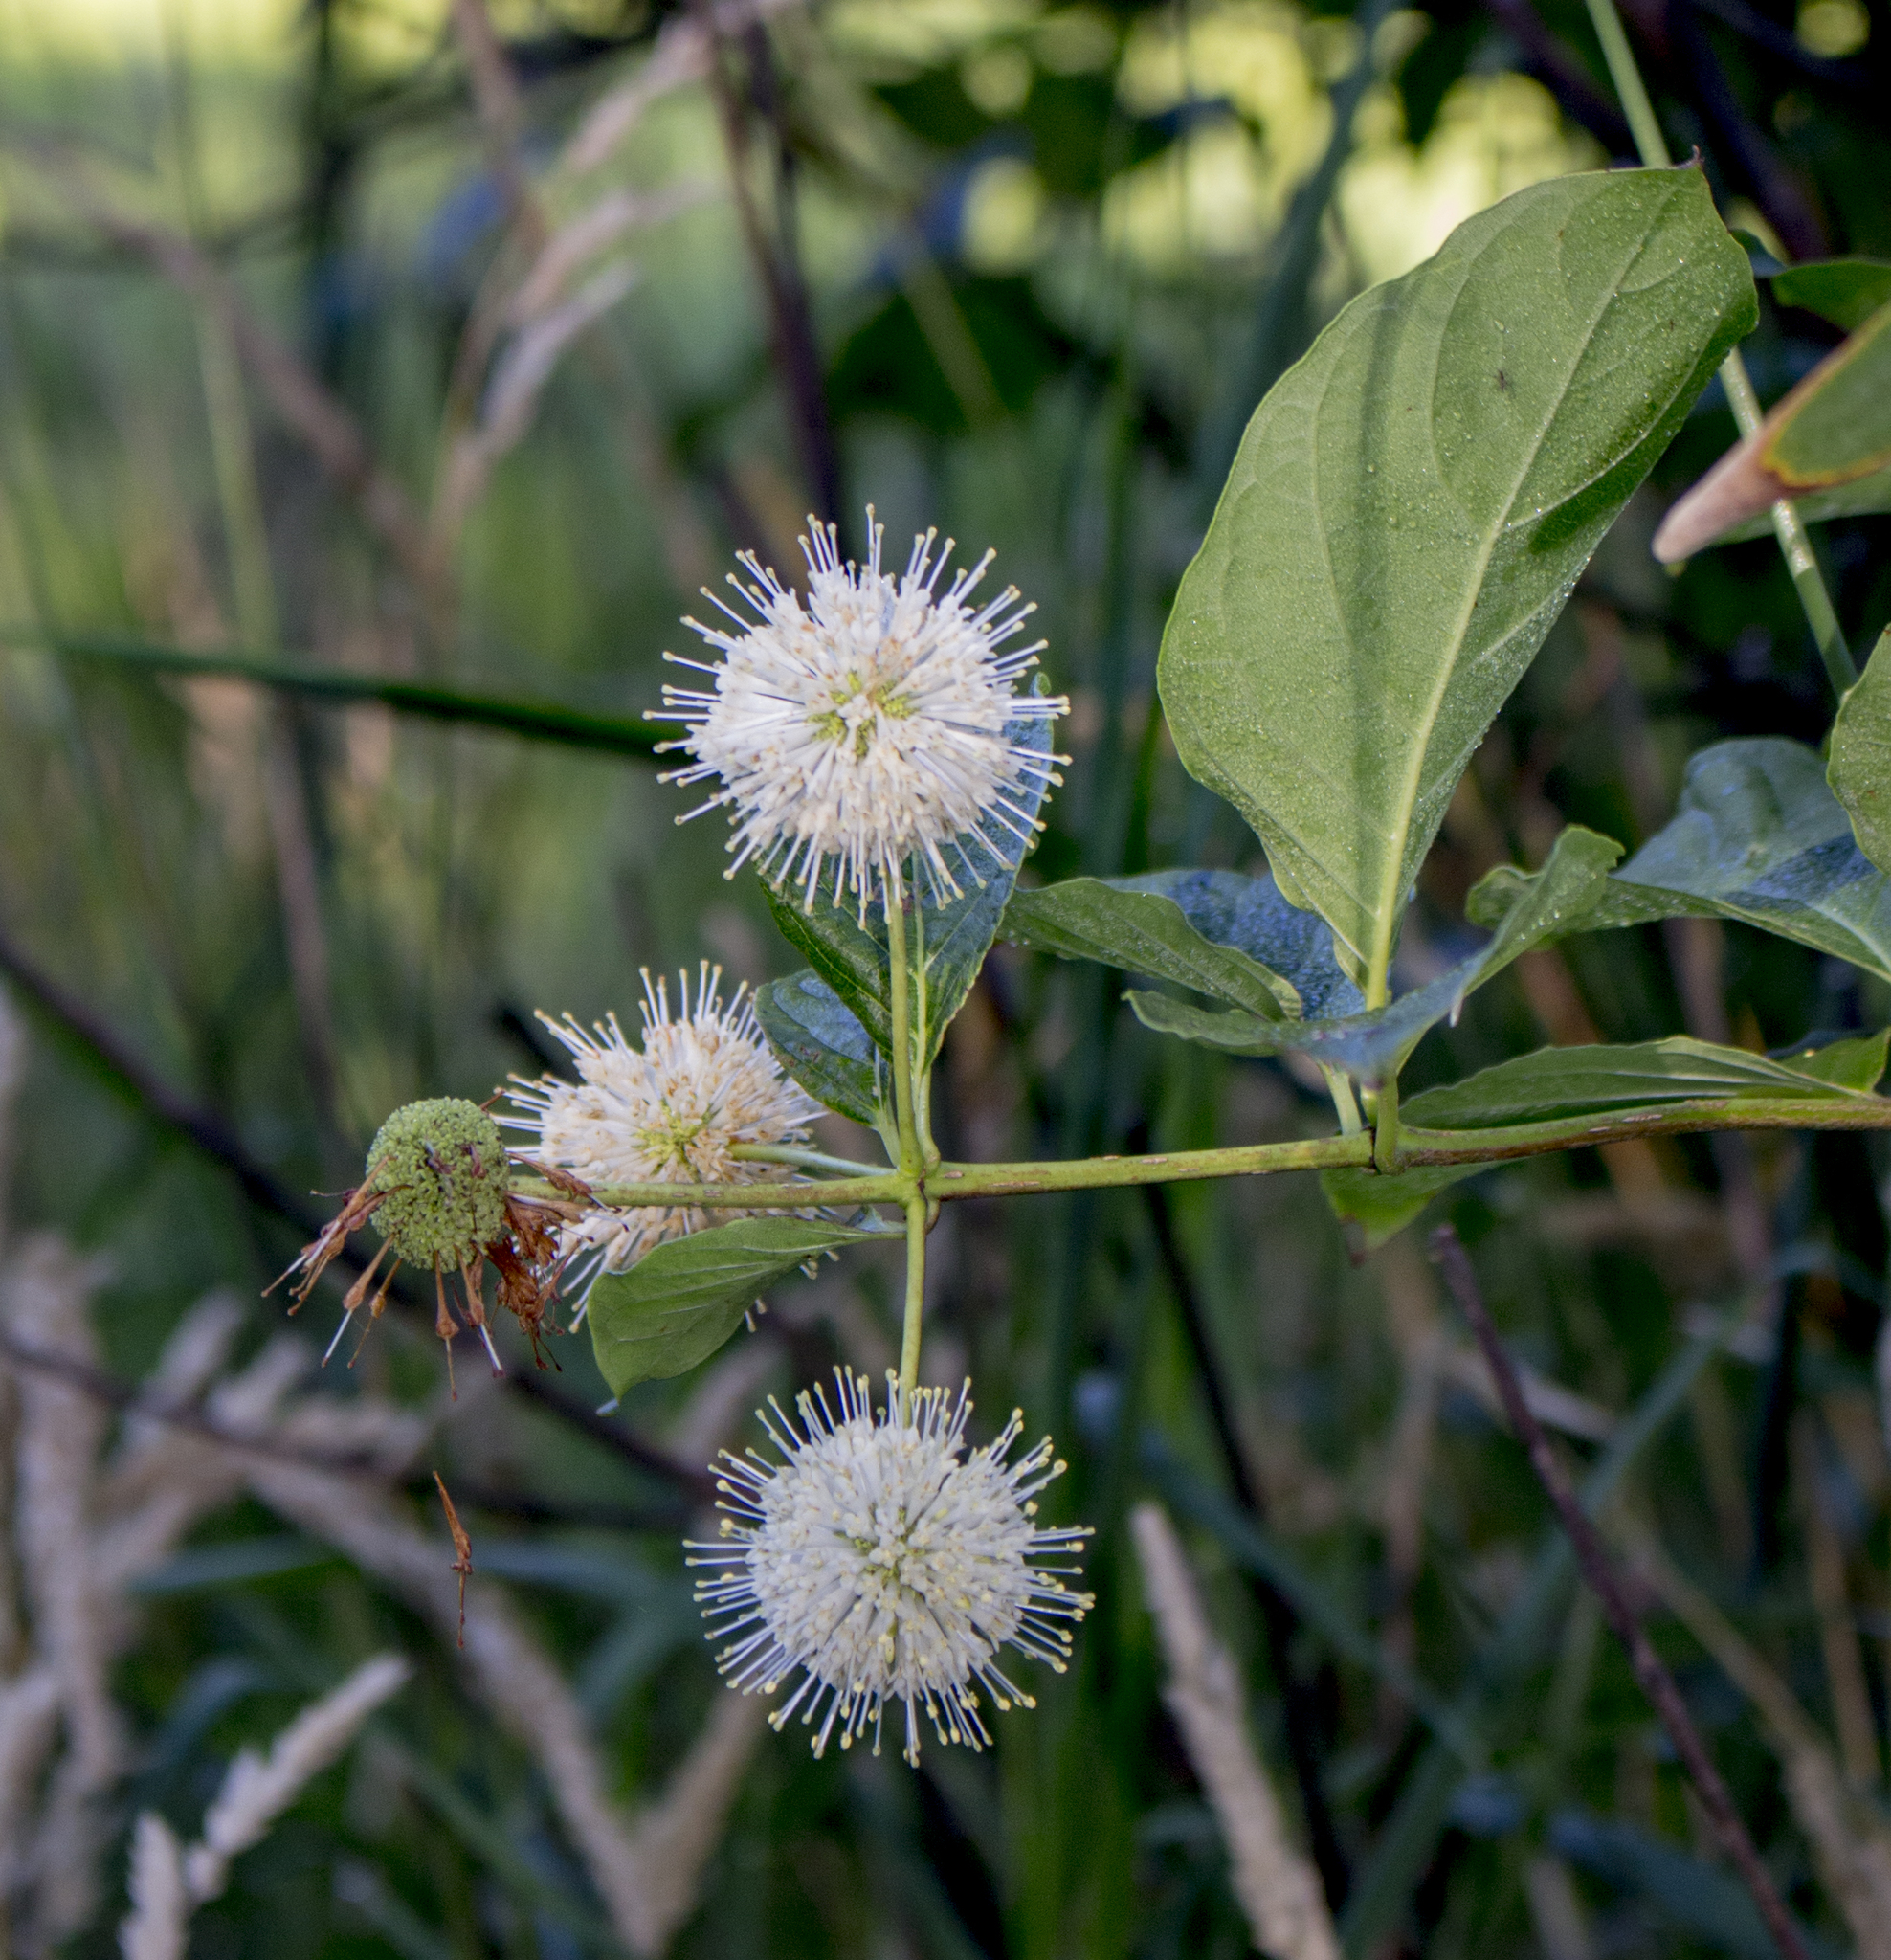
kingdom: Plantae
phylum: Tracheophyta
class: Magnoliopsida
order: Gentianales
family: Rubiaceae
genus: Cephalanthus
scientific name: Cephalanthus occidentalis
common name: Button-willow
